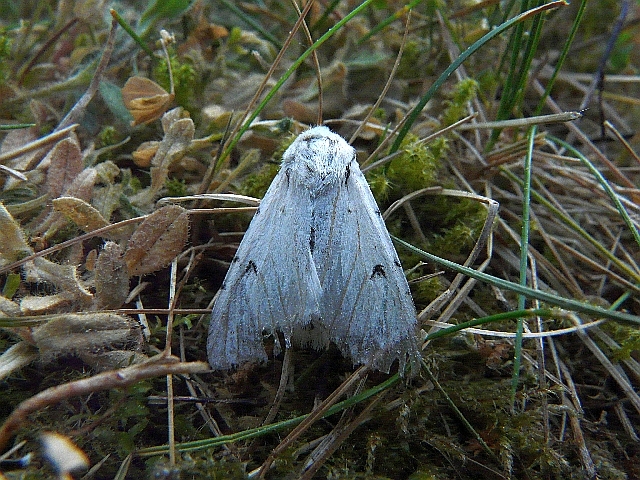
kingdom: Animalia
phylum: Arthropoda
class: Insecta
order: Lepidoptera
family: Noctuidae
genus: Acronicta
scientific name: Acronicta leporina
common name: Miller
